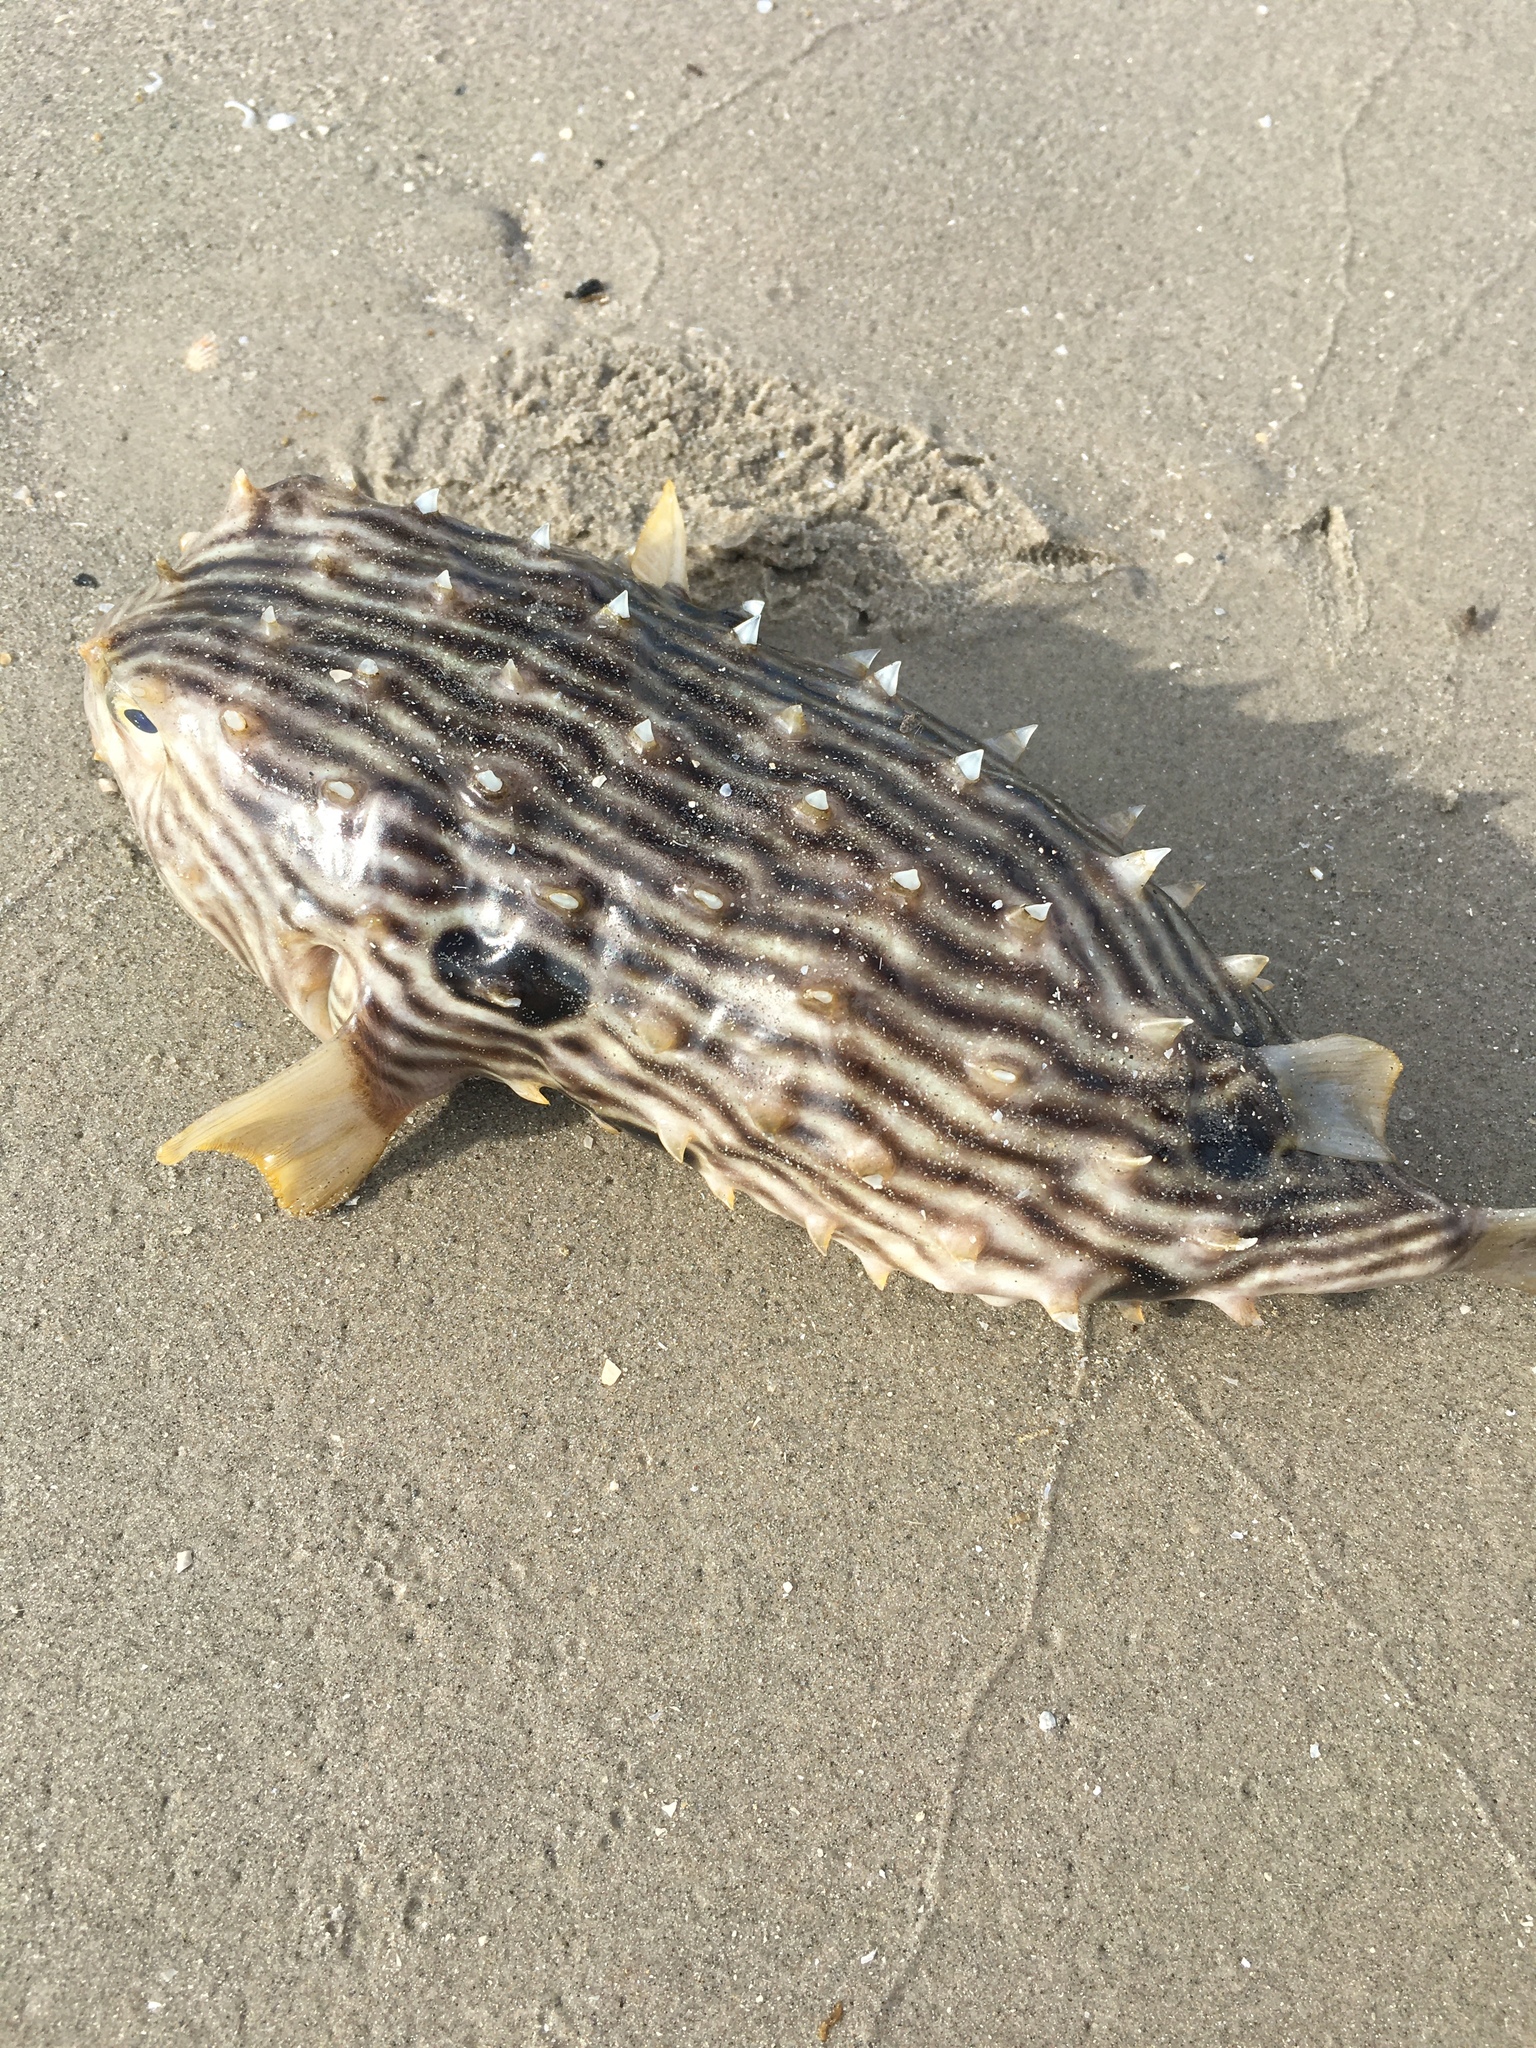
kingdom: Animalia
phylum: Chordata
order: Tetraodontiformes
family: Diodontidae
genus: Chilomycterus
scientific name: Chilomycterus schoepfii
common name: Striped burrfish
